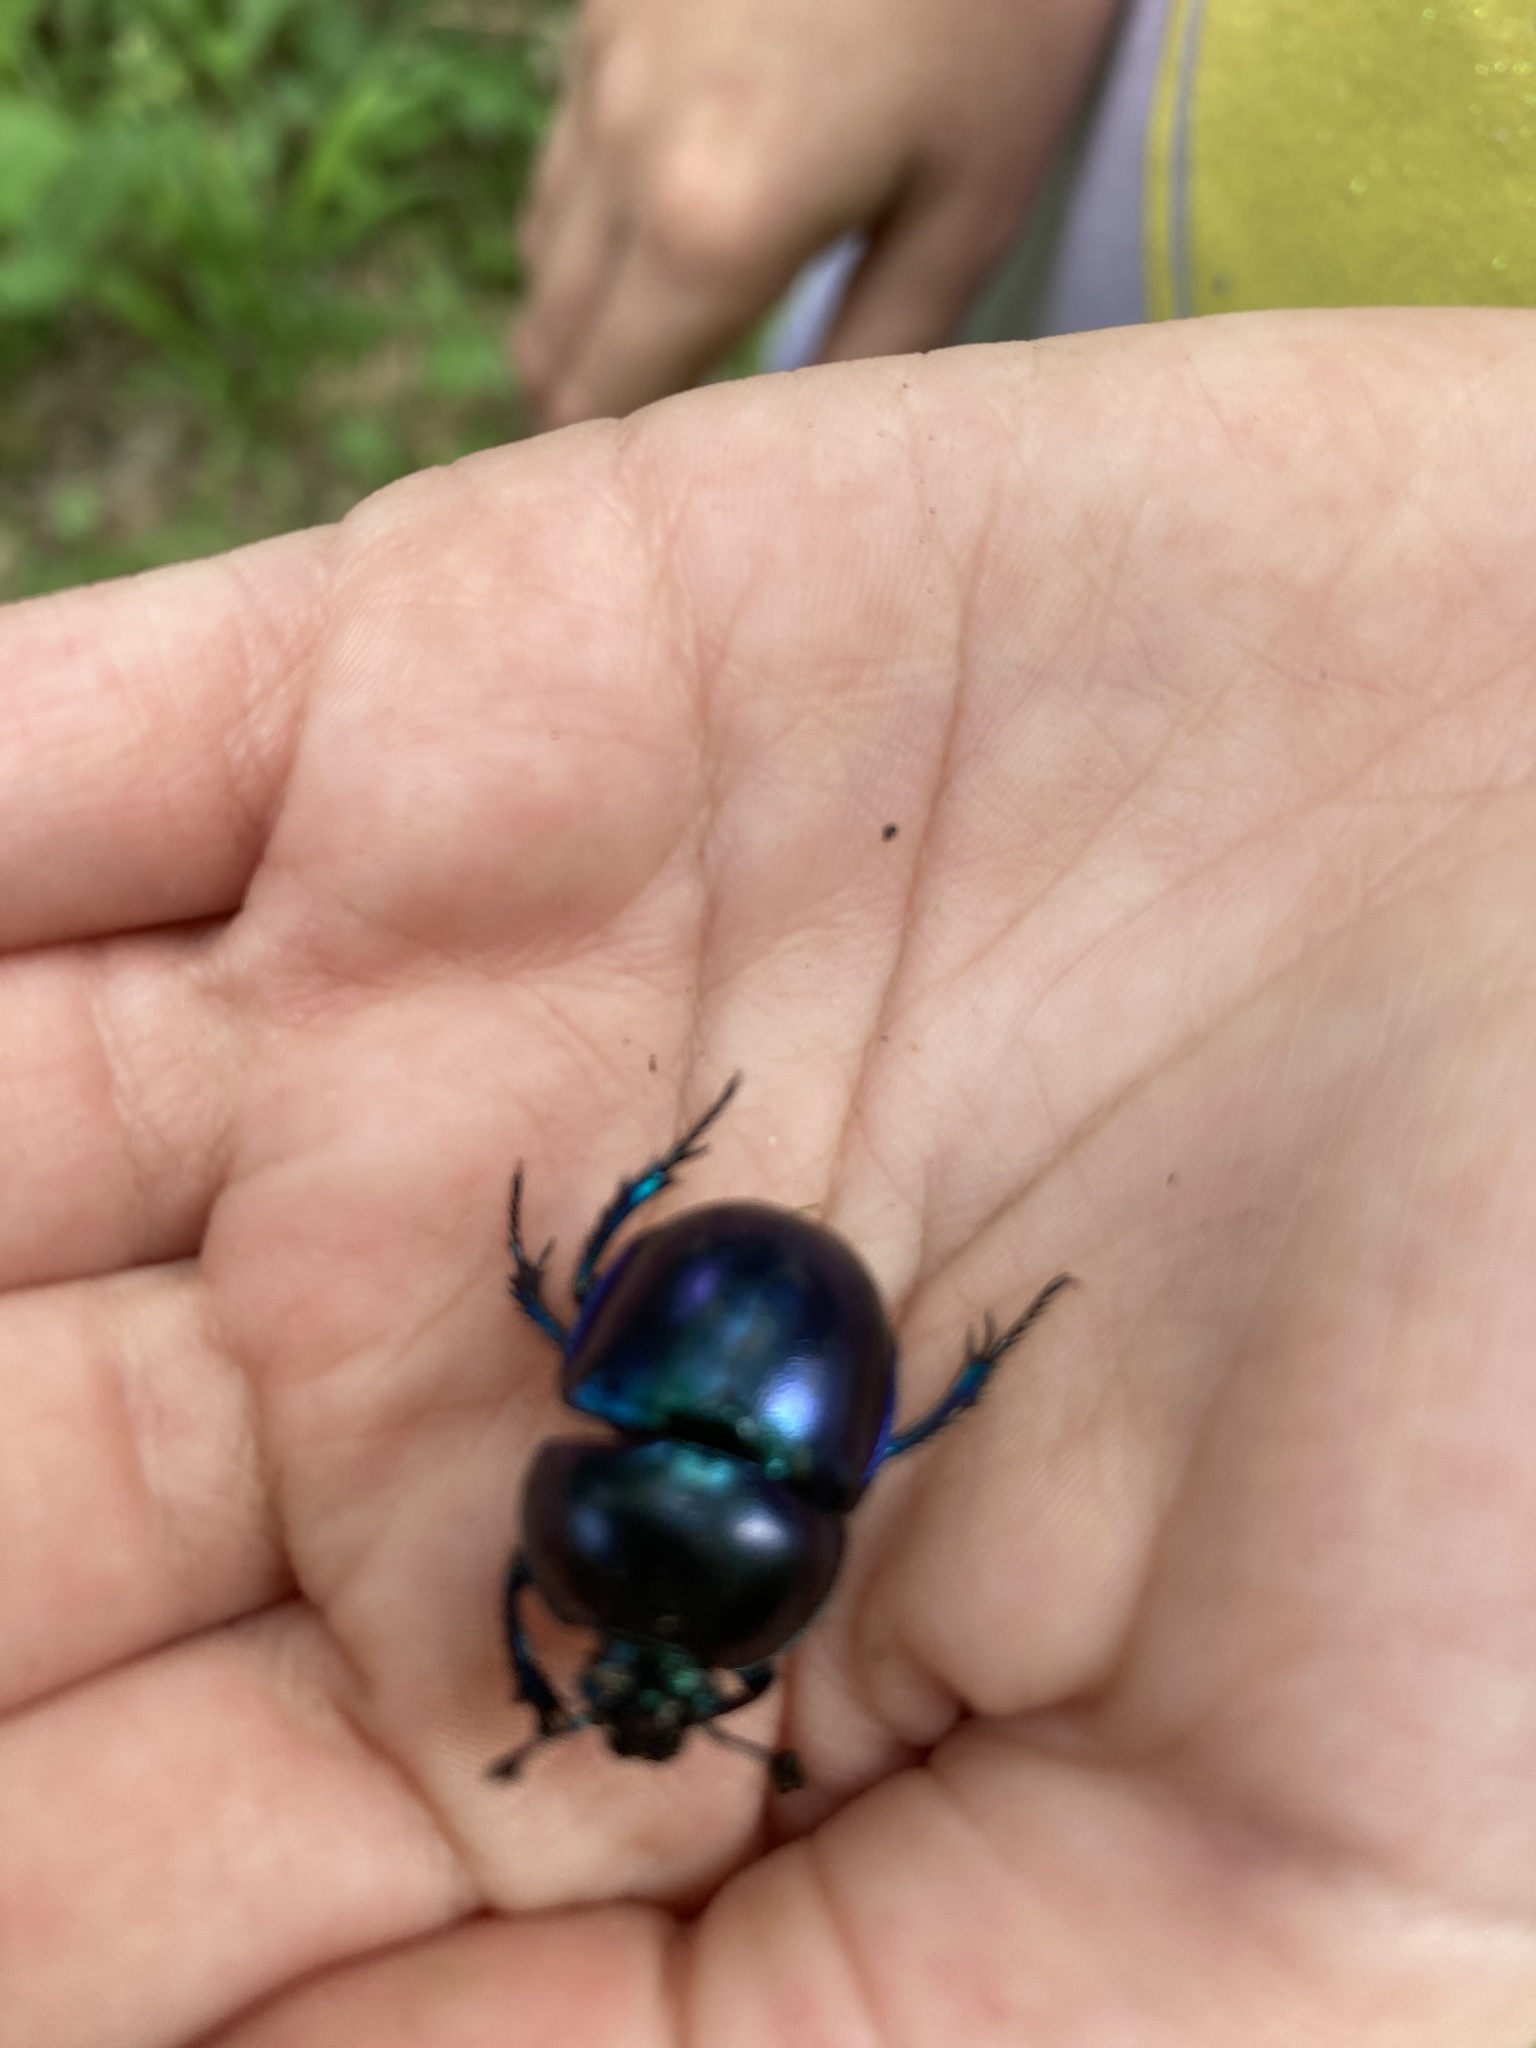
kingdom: Animalia
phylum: Arthropoda
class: Insecta
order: Coleoptera
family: Geotrupidae
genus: Trypocopris
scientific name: Trypocopris vernalis
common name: Spring dumbledor
